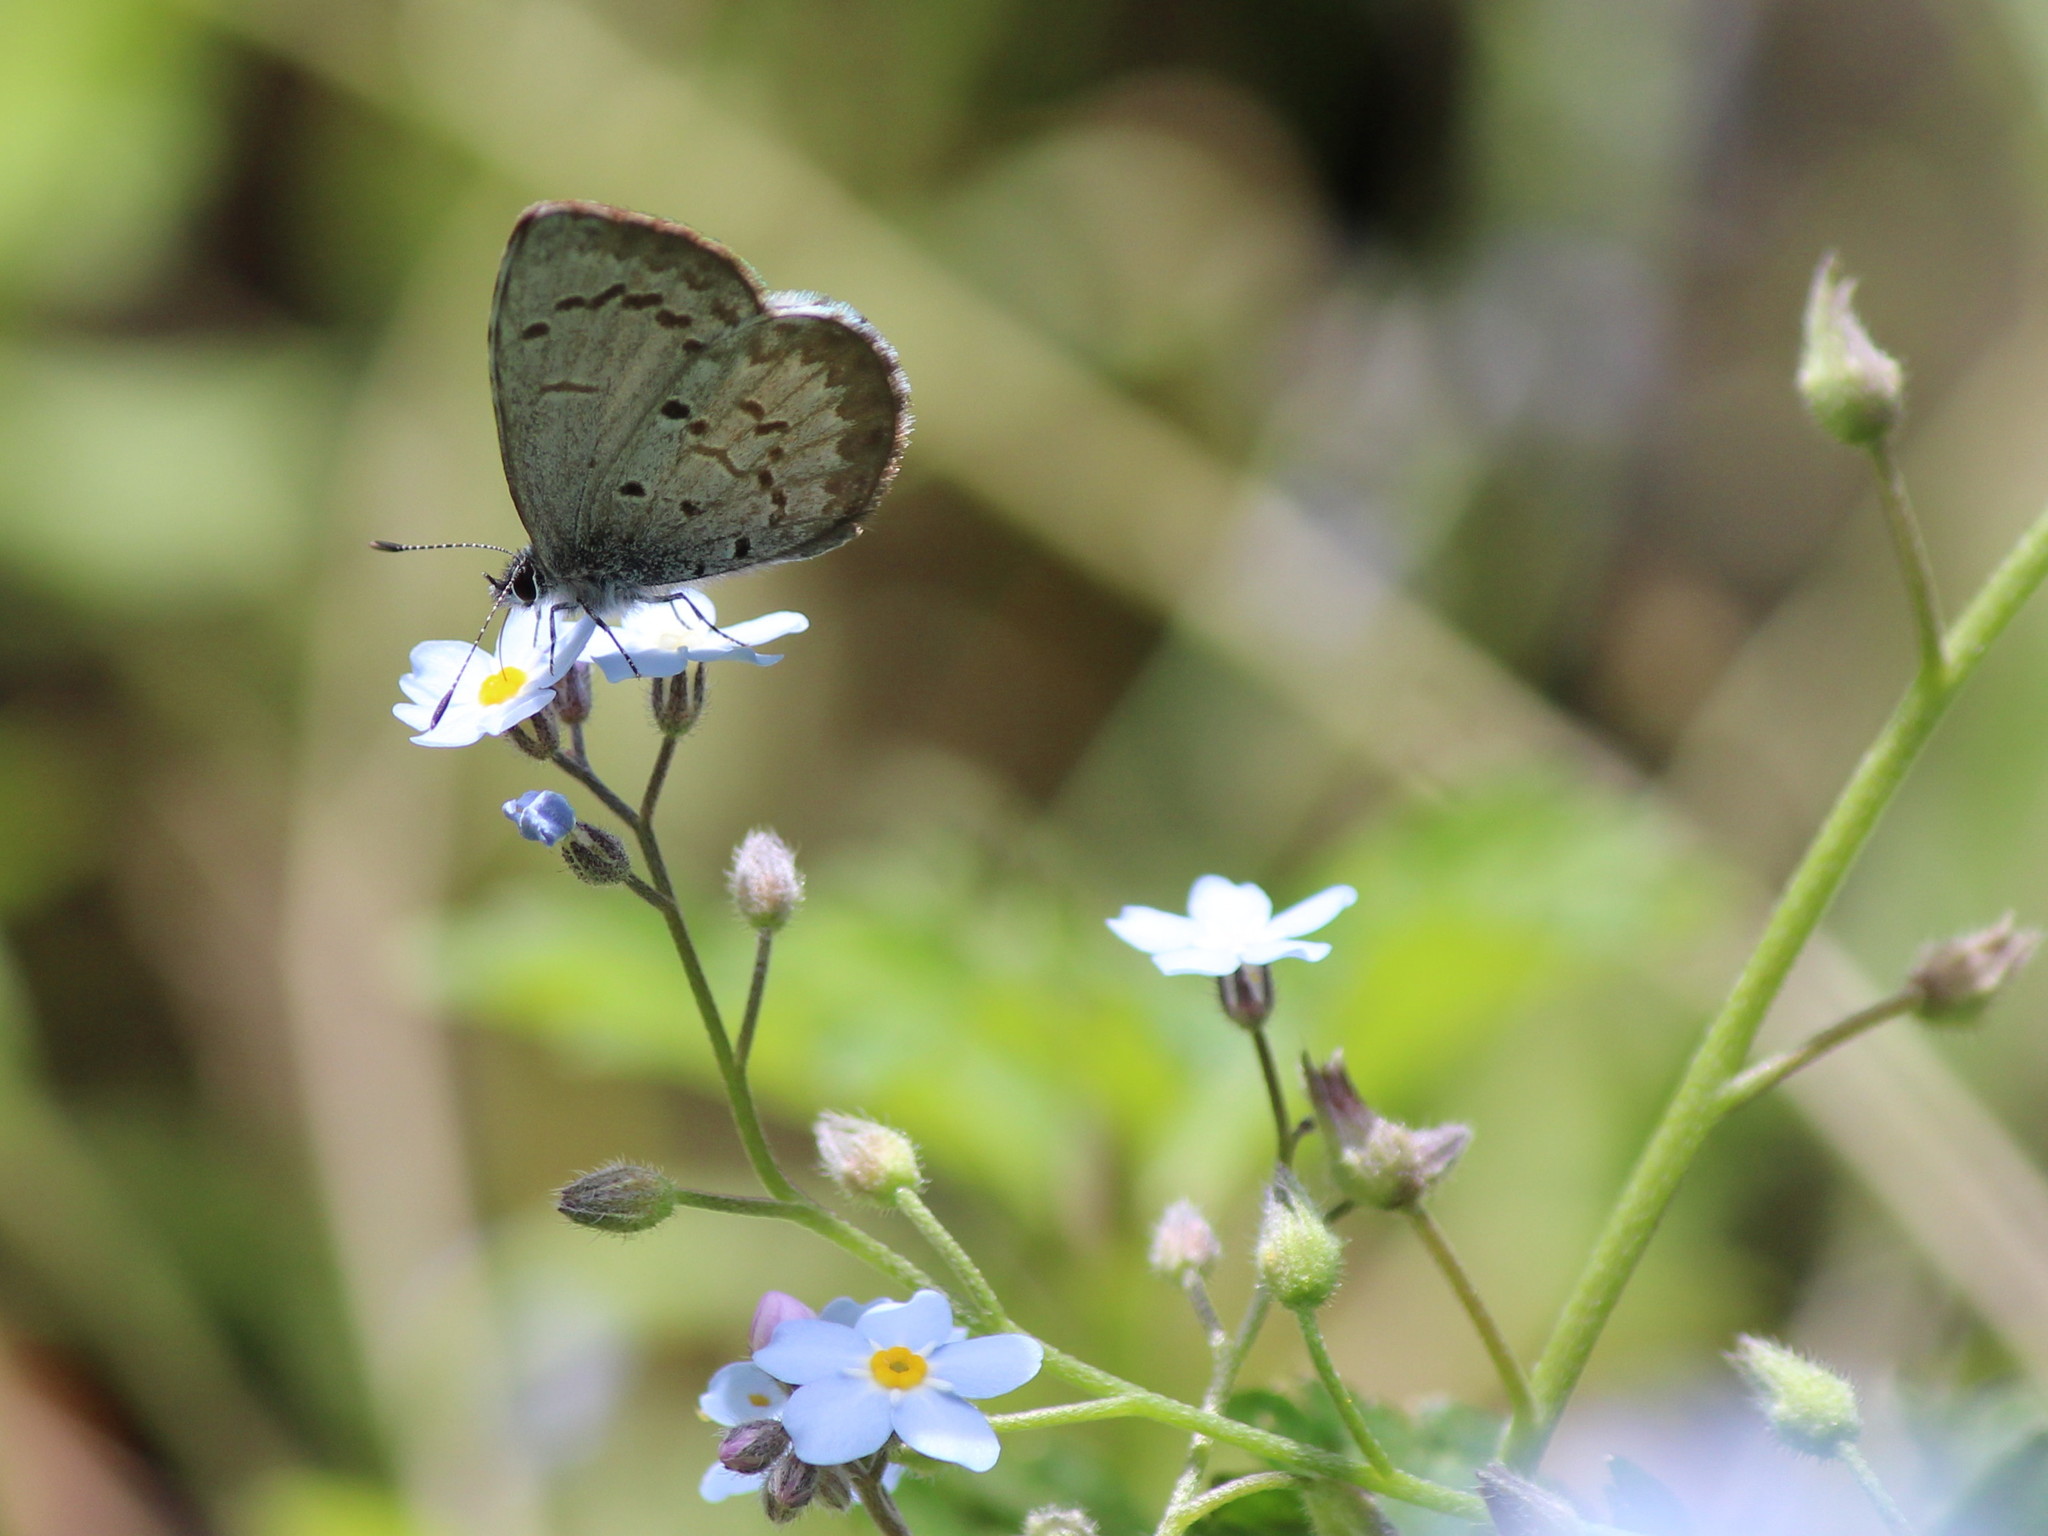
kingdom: Animalia
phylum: Arthropoda
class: Insecta
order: Lepidoptera
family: Lycaenidae
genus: Celastrina
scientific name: Celastrina lucia
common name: Lucia azure
